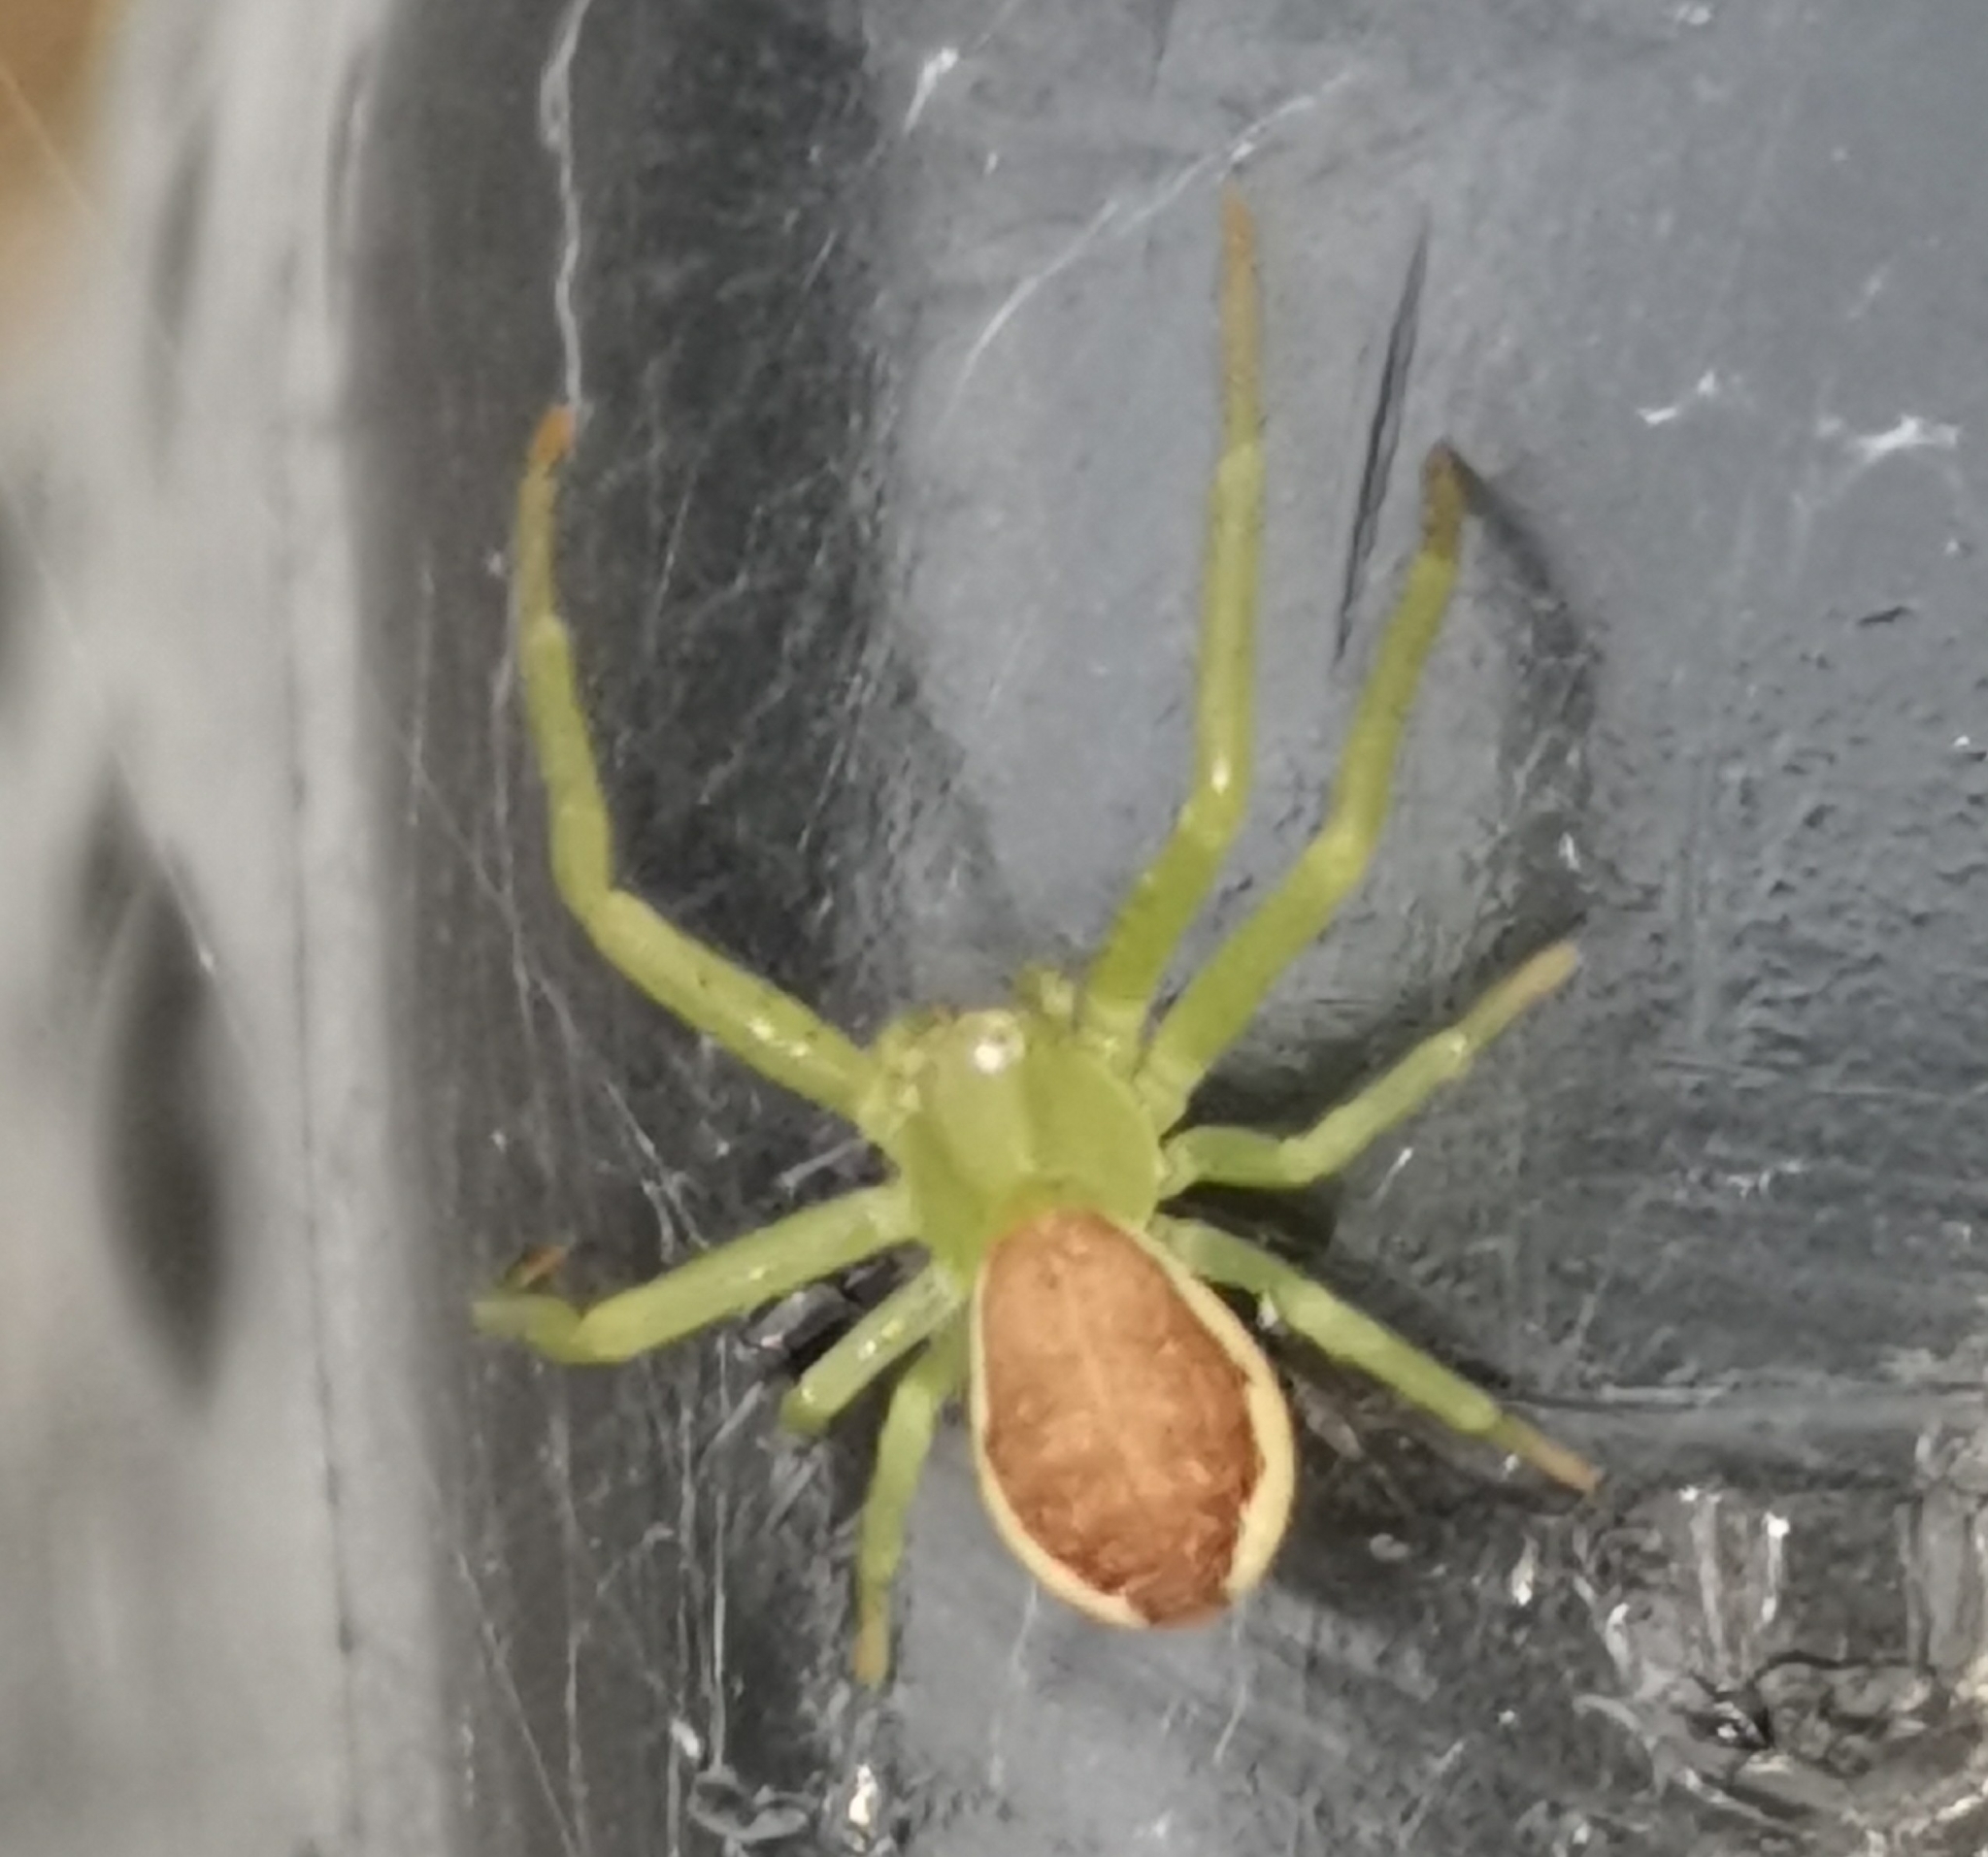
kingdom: Animalia
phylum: Arthropoda
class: Arachnida
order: Araneae
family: Thomisidae
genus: Diaea
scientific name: Diaea dorsata
